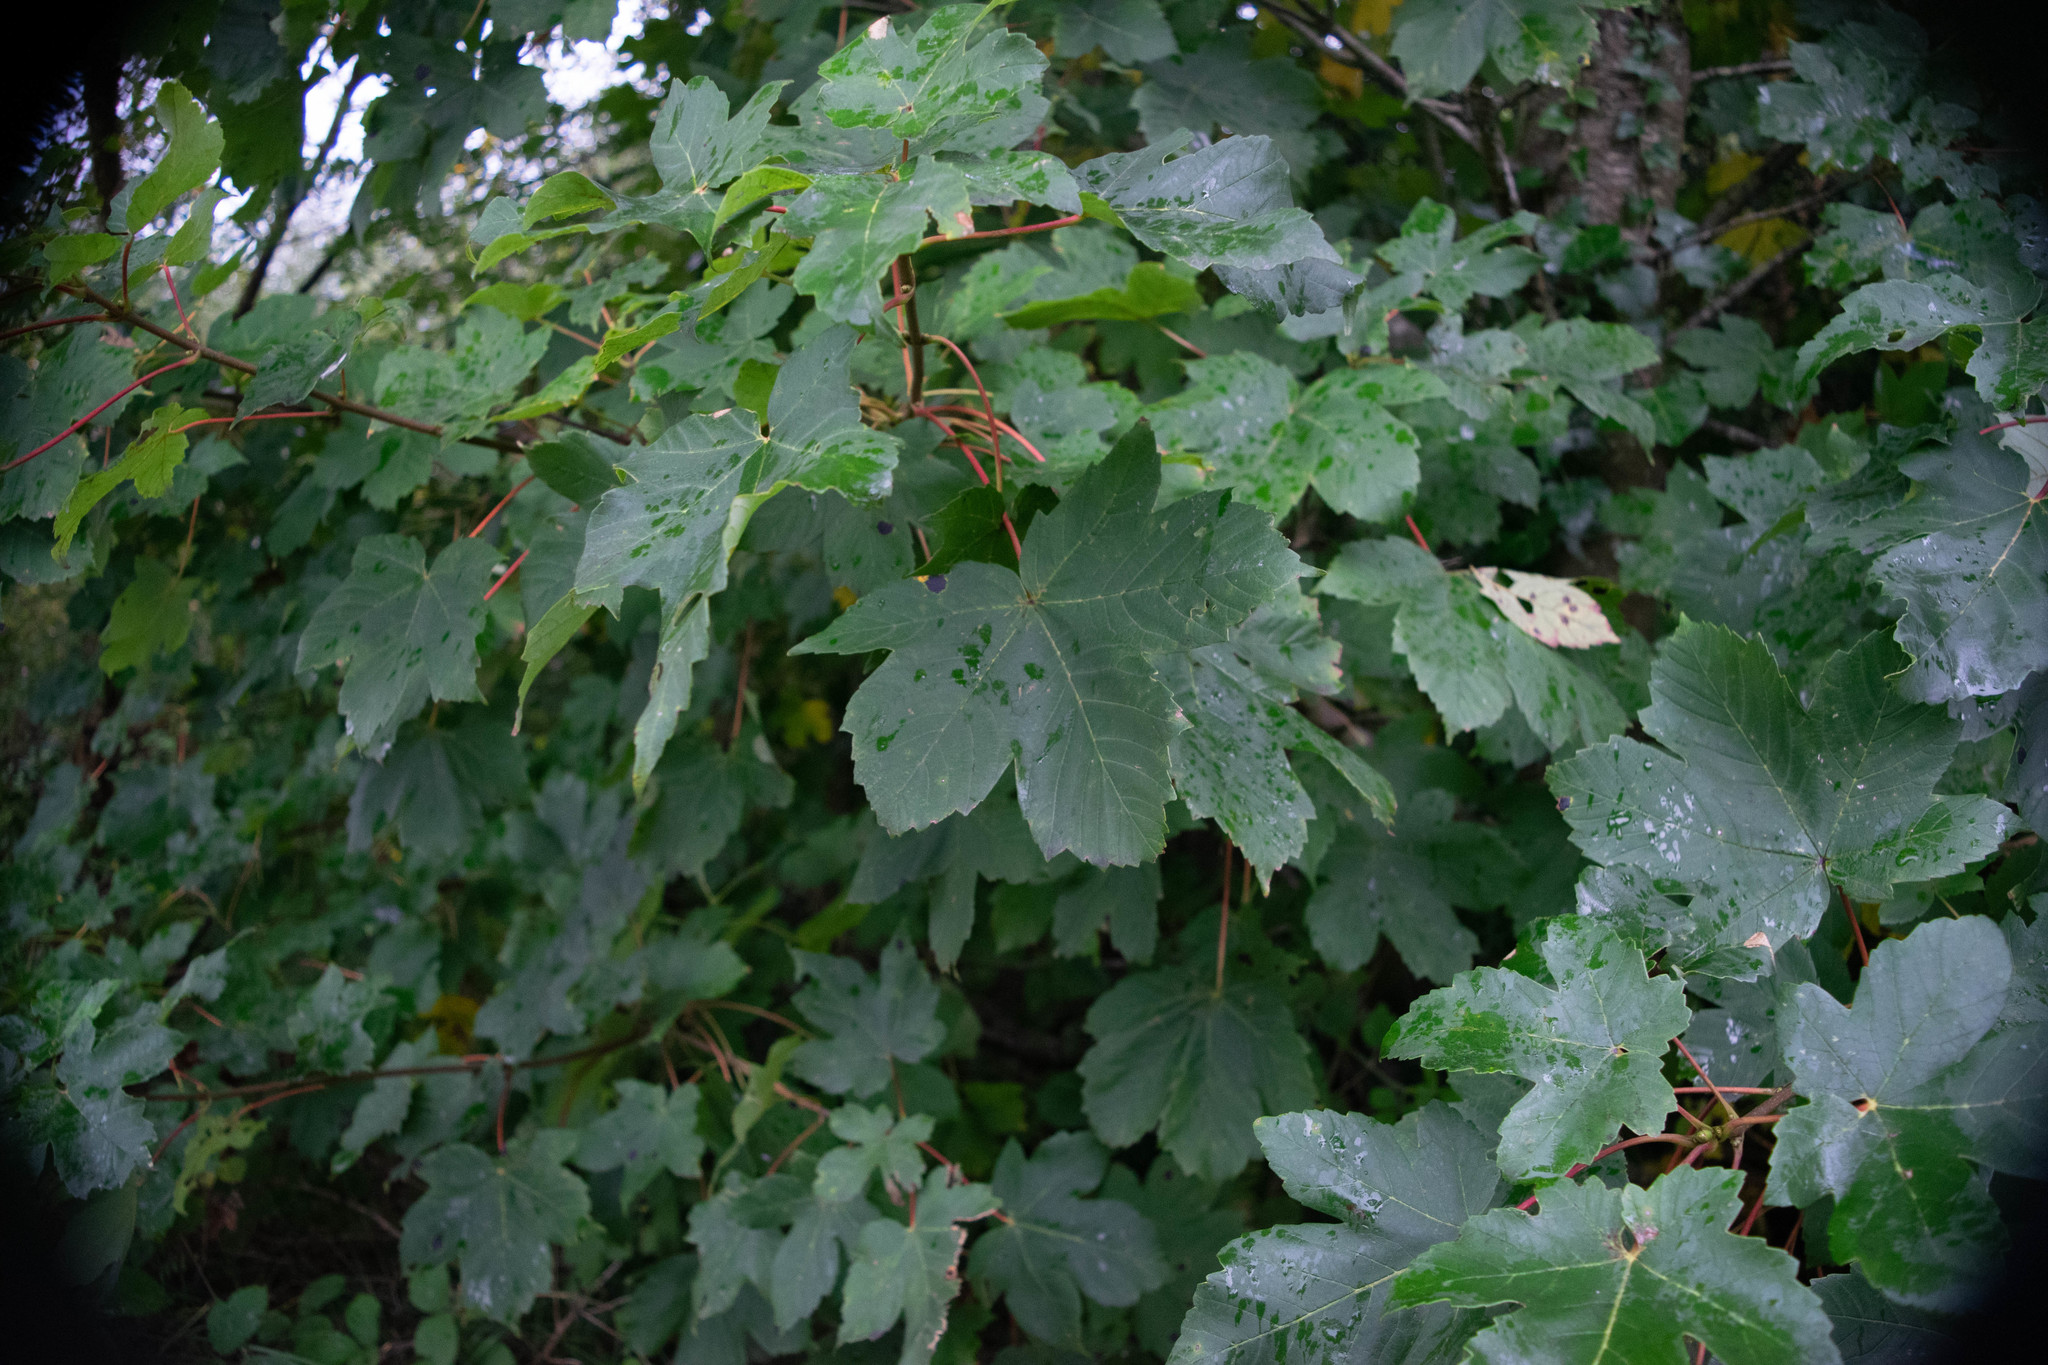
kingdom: Plantae
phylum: Tracheophyta
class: Magnoliopsida
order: Sapindales
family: Sapindaceae
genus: Acer
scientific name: Acer pseudoplatanus
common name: Sycamore
